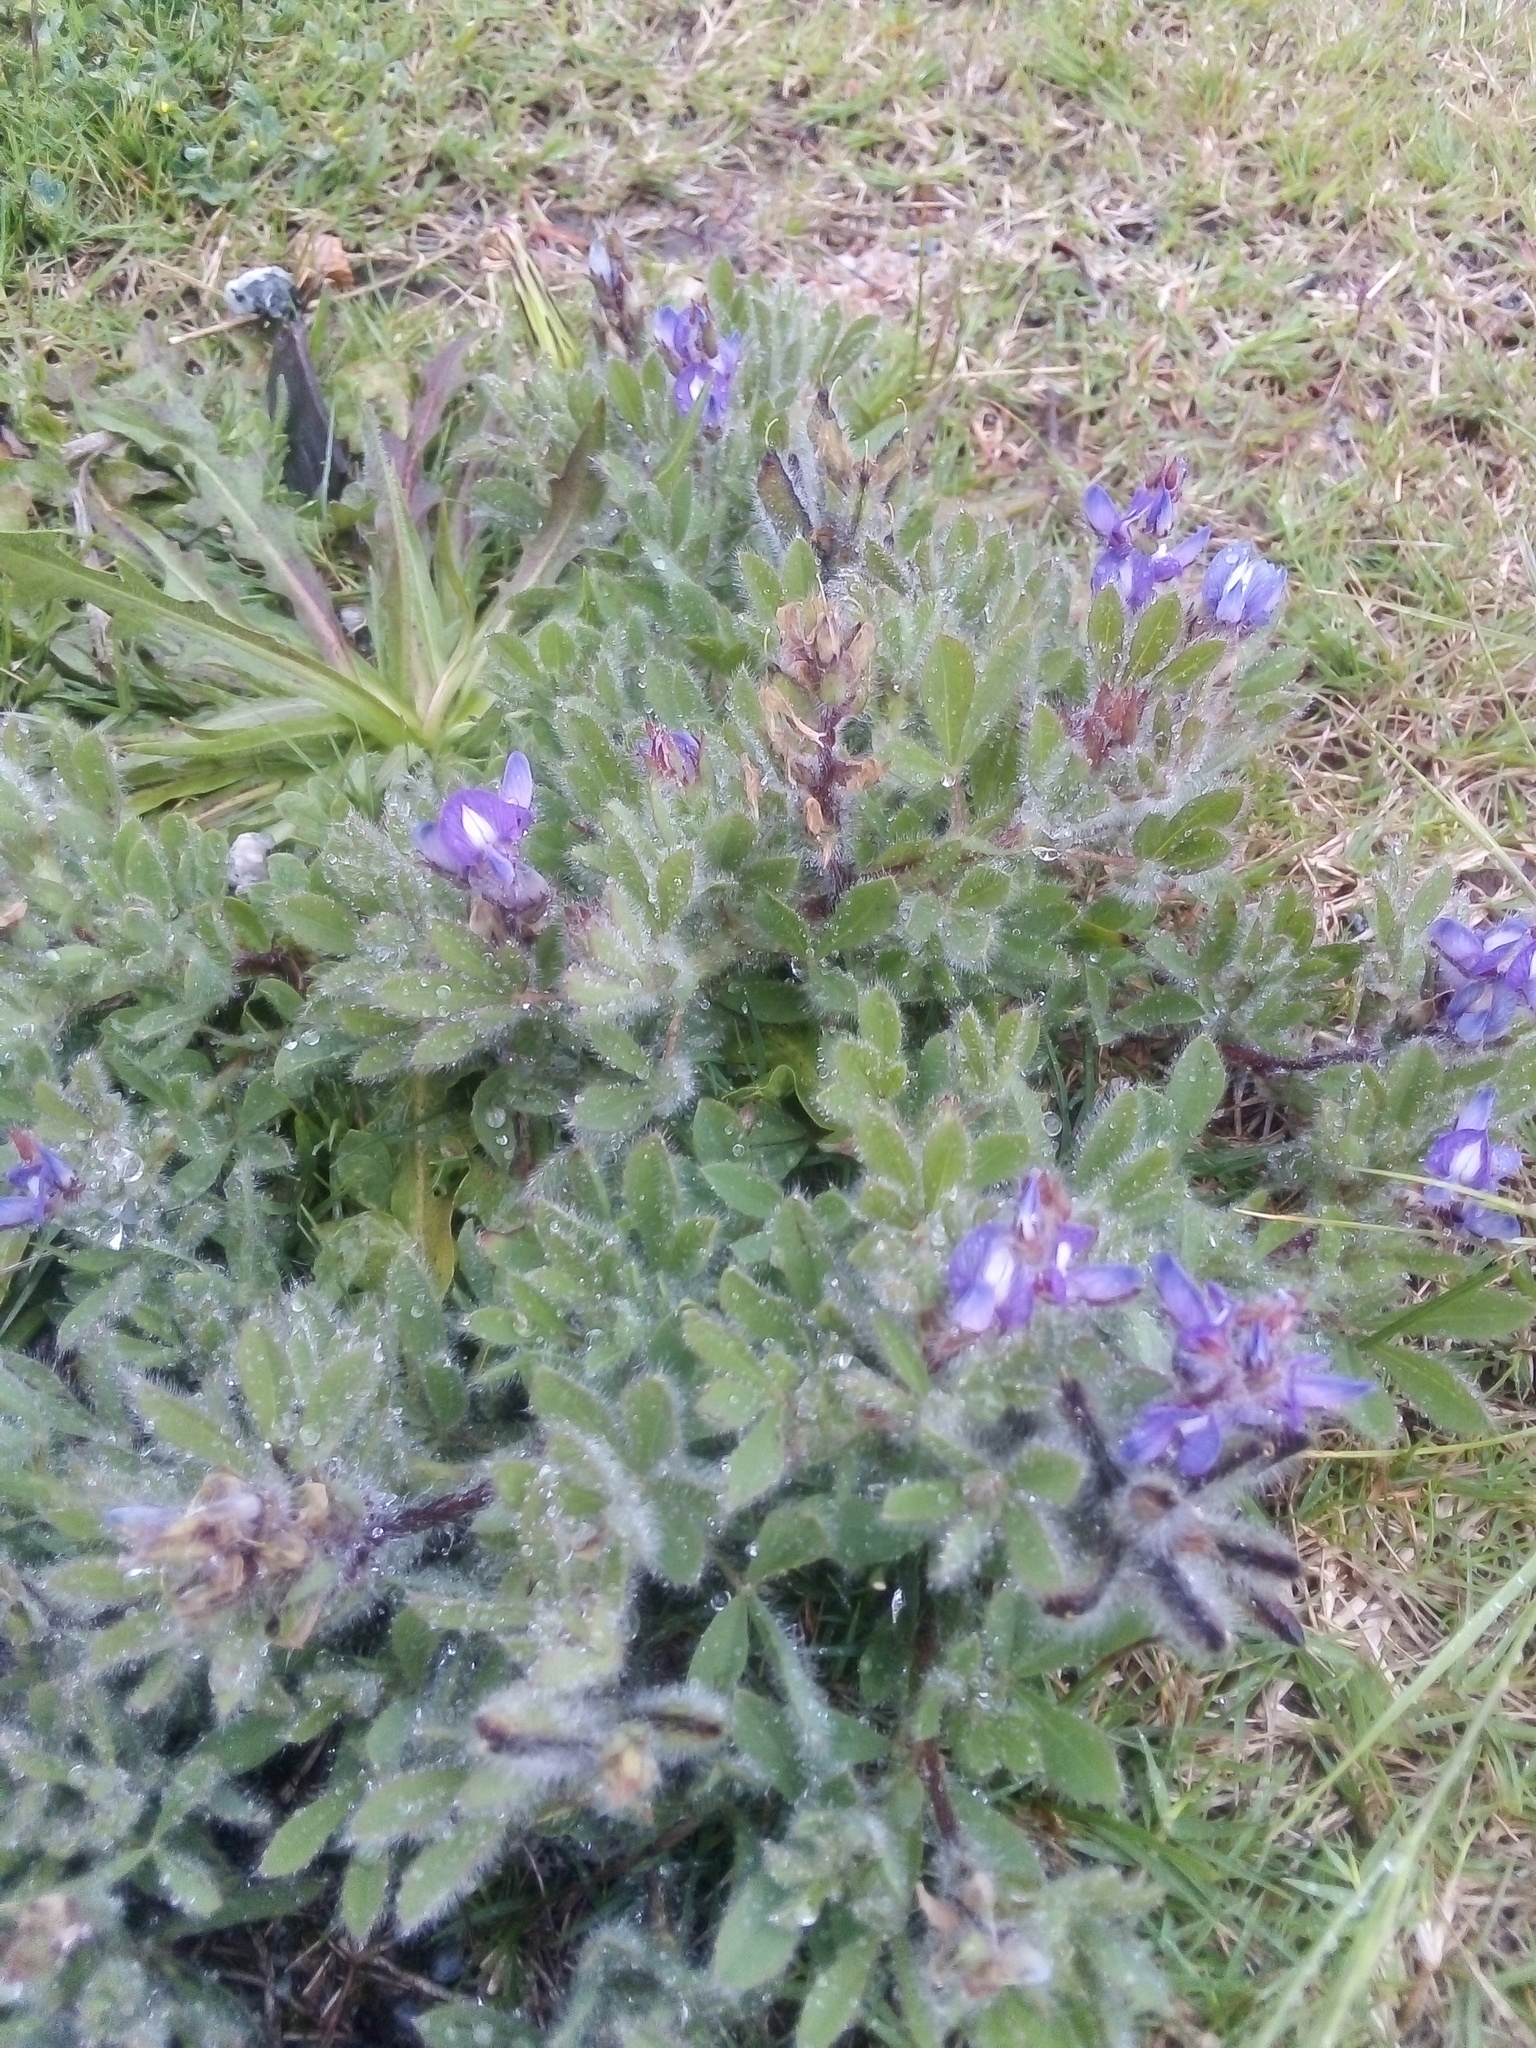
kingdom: Plantae
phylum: Tracheophyta
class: Magnoliopsida
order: Fabales
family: Fabaceae
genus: Lupinus
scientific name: Lupinus bracteolaris
